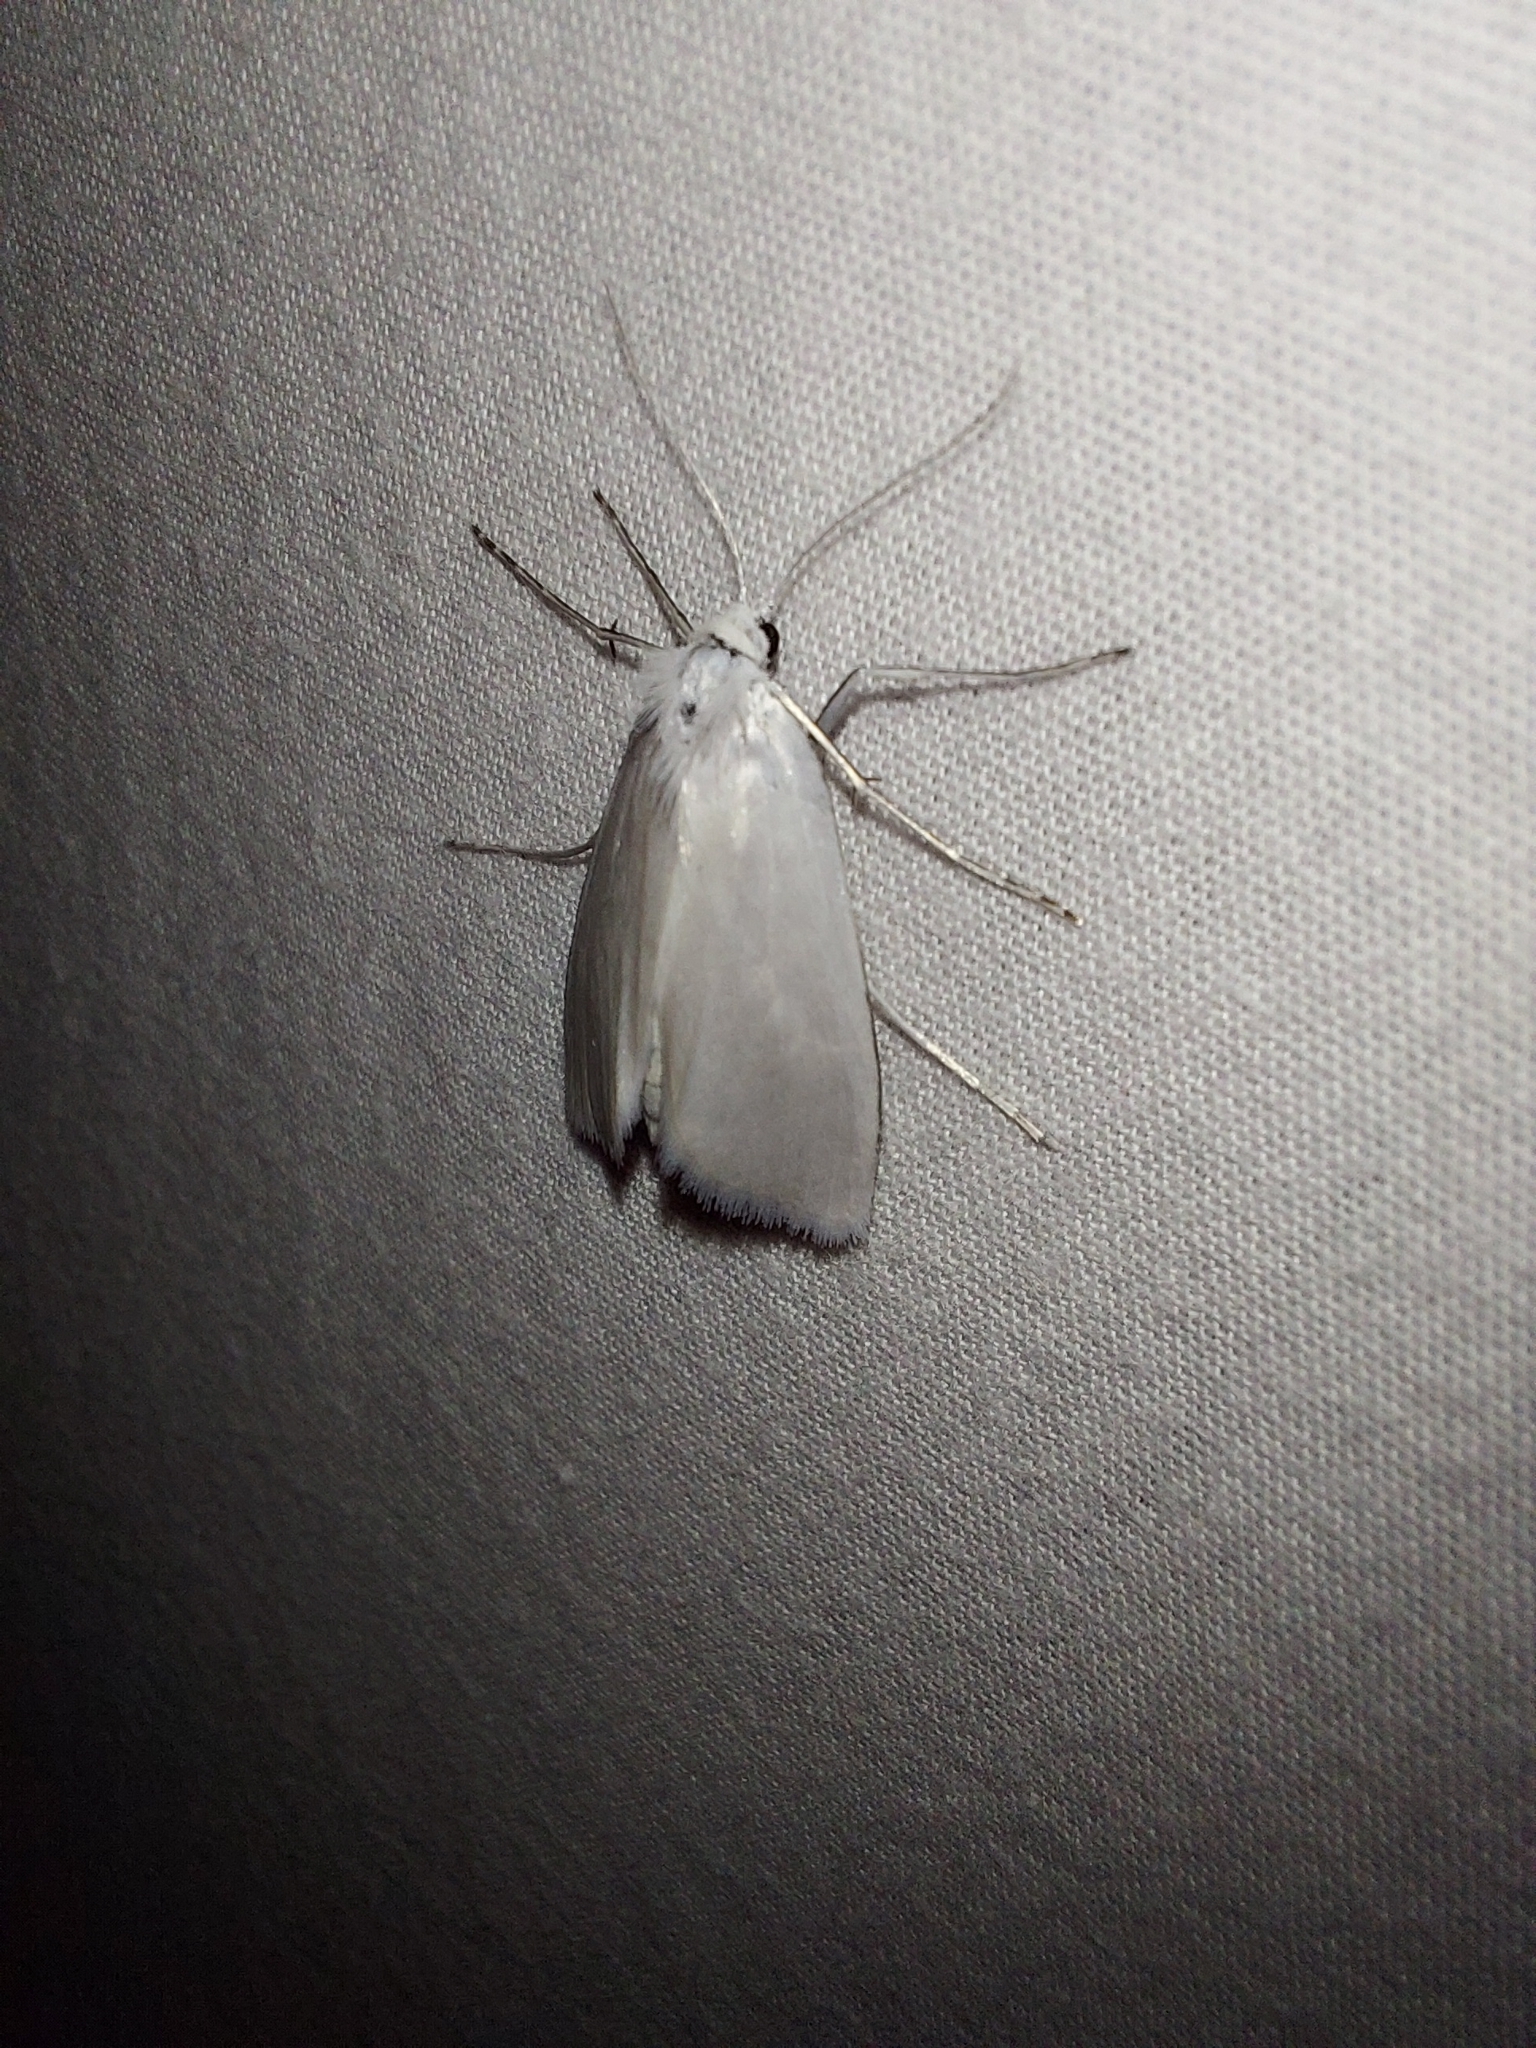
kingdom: Animalia
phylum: Arthropoda
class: Insecta
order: Lepidoptera
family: Crambidae
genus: Tipanaea
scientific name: Tipanaea patulella
